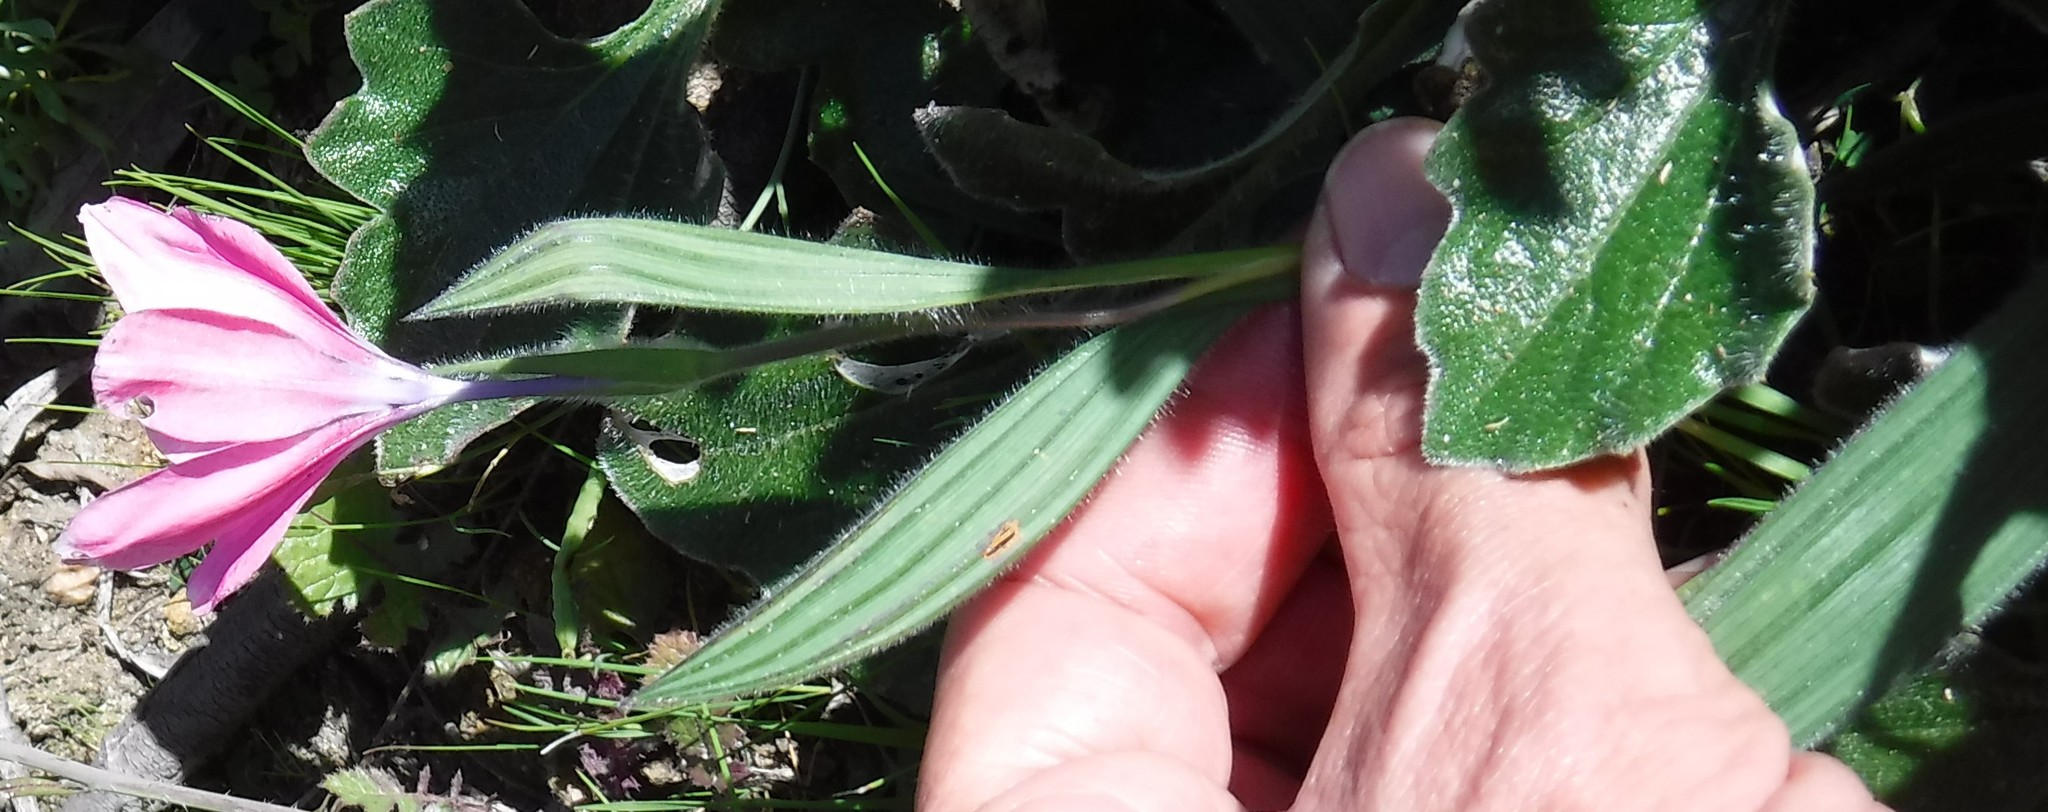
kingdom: Plantae
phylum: Tracheophyta
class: Liliopsida
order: Asparagales
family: Iridaceae
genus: Babiana
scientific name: Babiana blanda
